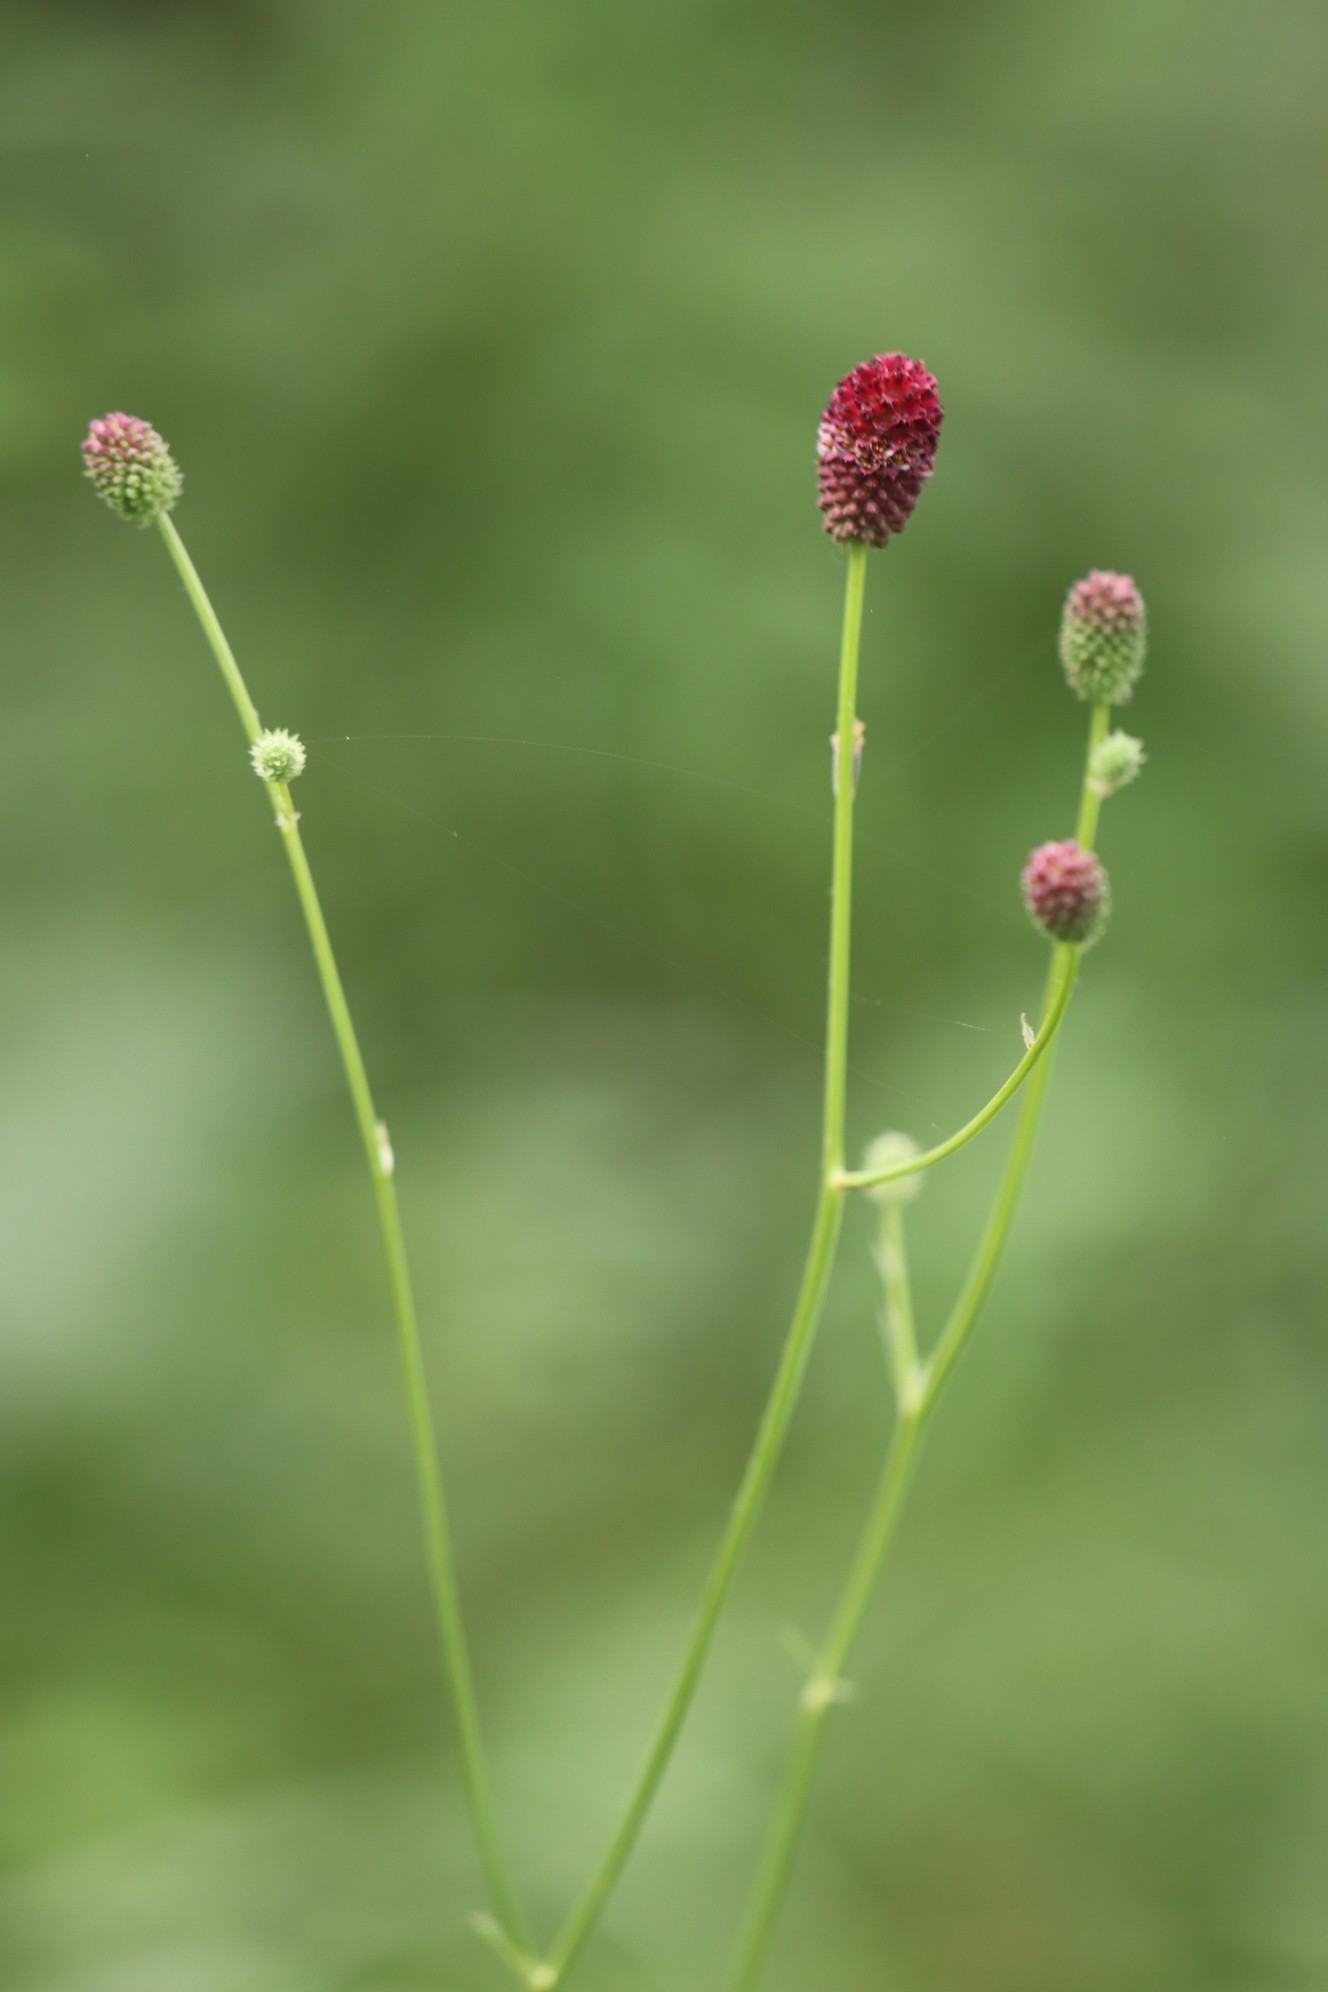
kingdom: Plantae
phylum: Tracheophyta
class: Magnoliopsida
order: Rosales
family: Rosaceae
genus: Sanguisorba
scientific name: Sanguisorba officinalis
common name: Great burnet
